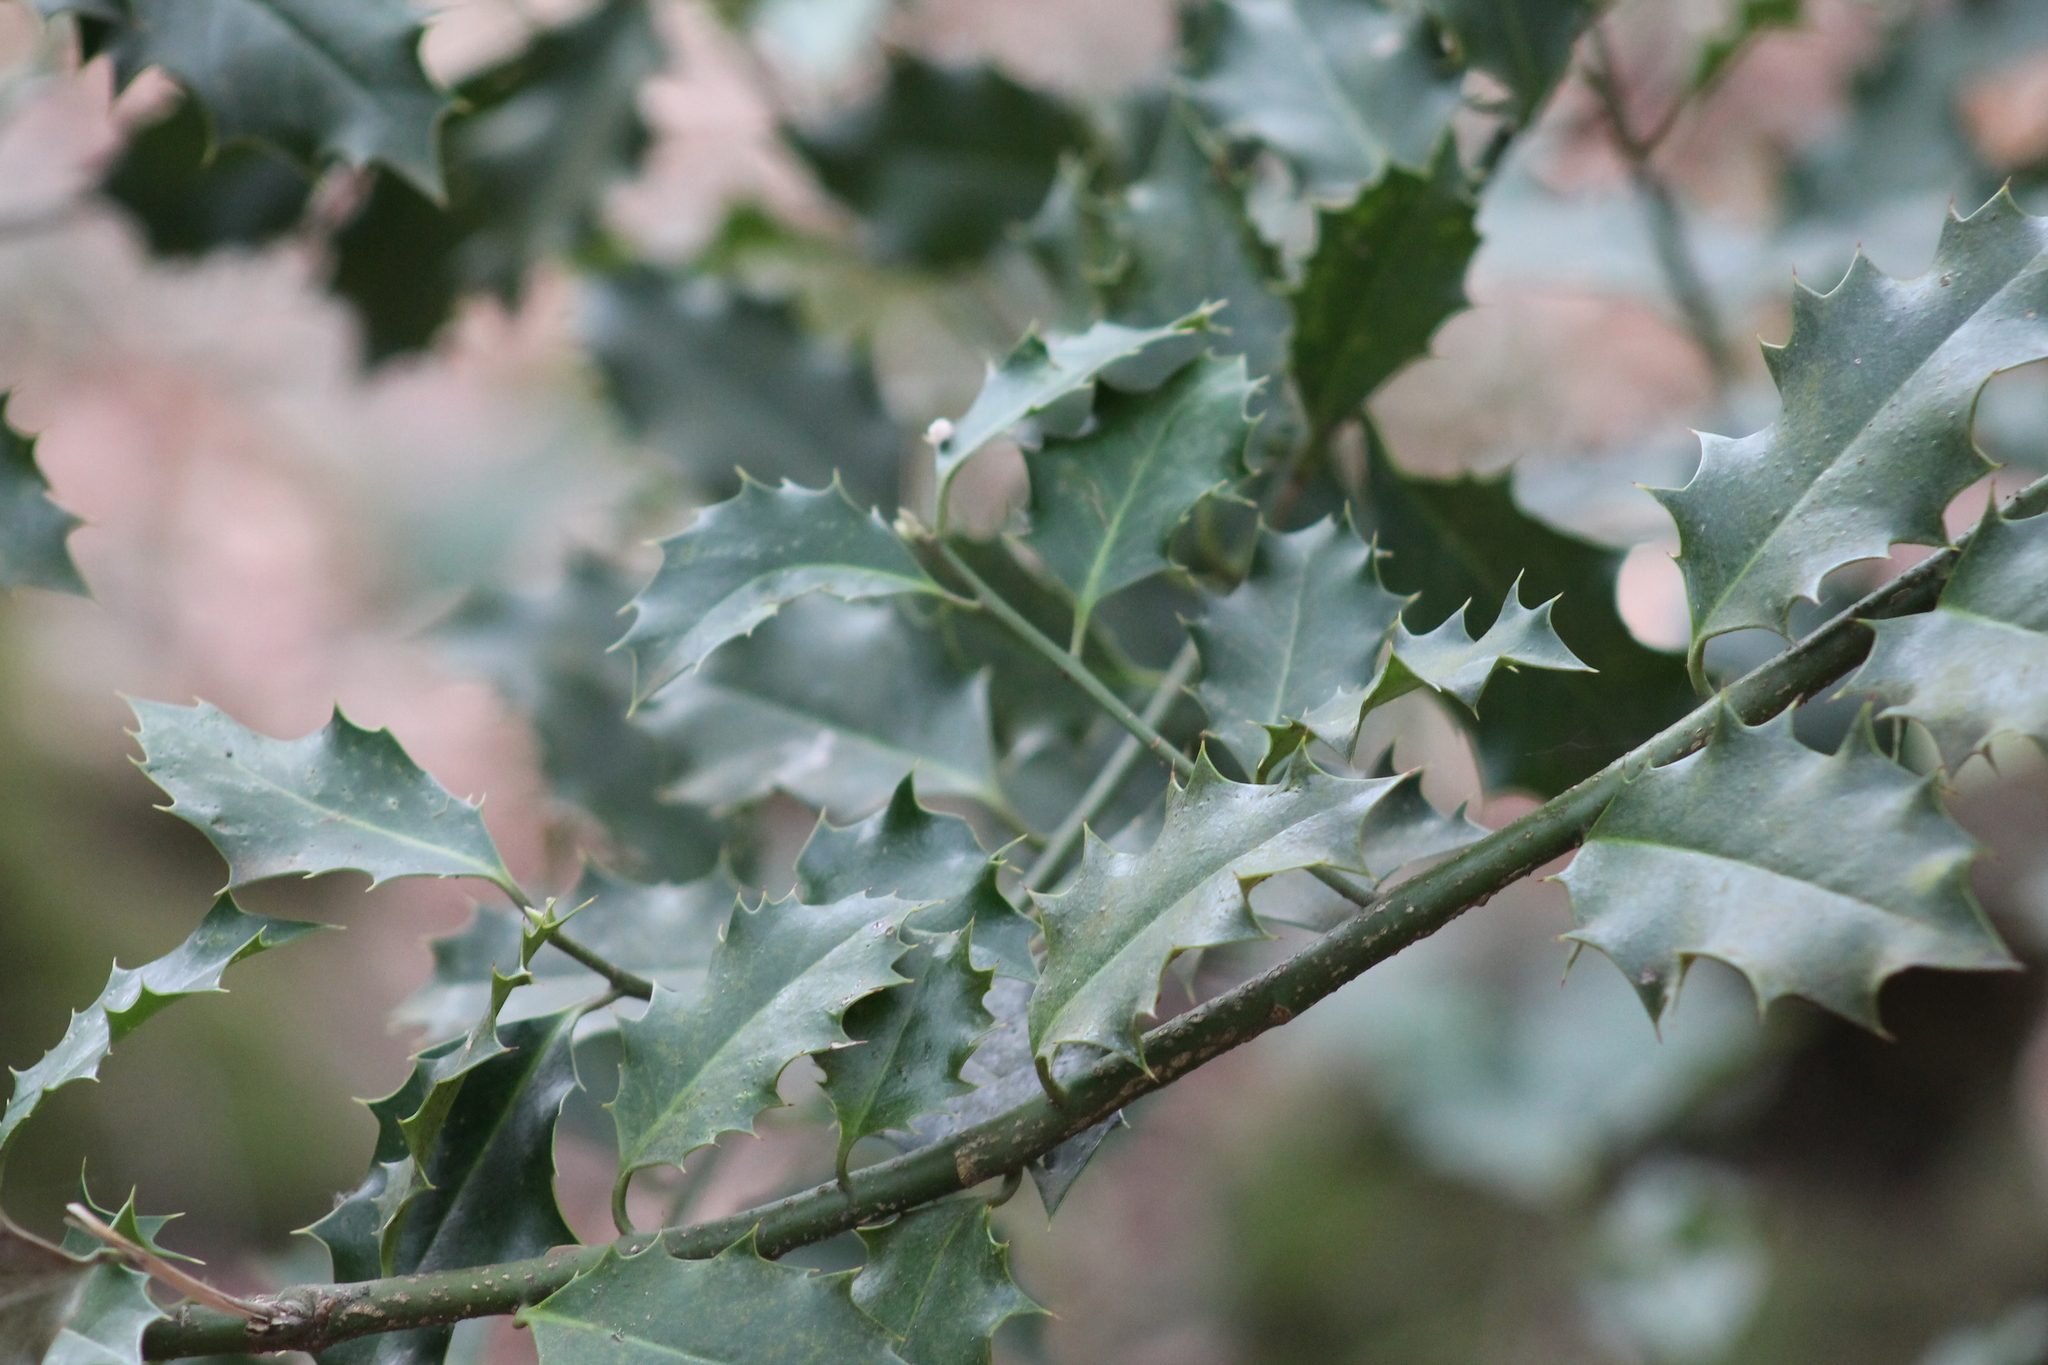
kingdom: Plantae
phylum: Tracheophyta
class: Magnoliopsida
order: Aquifoliales
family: Aquifoliaceae
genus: Ilex
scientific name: Ilex aquifolium
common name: English holly
